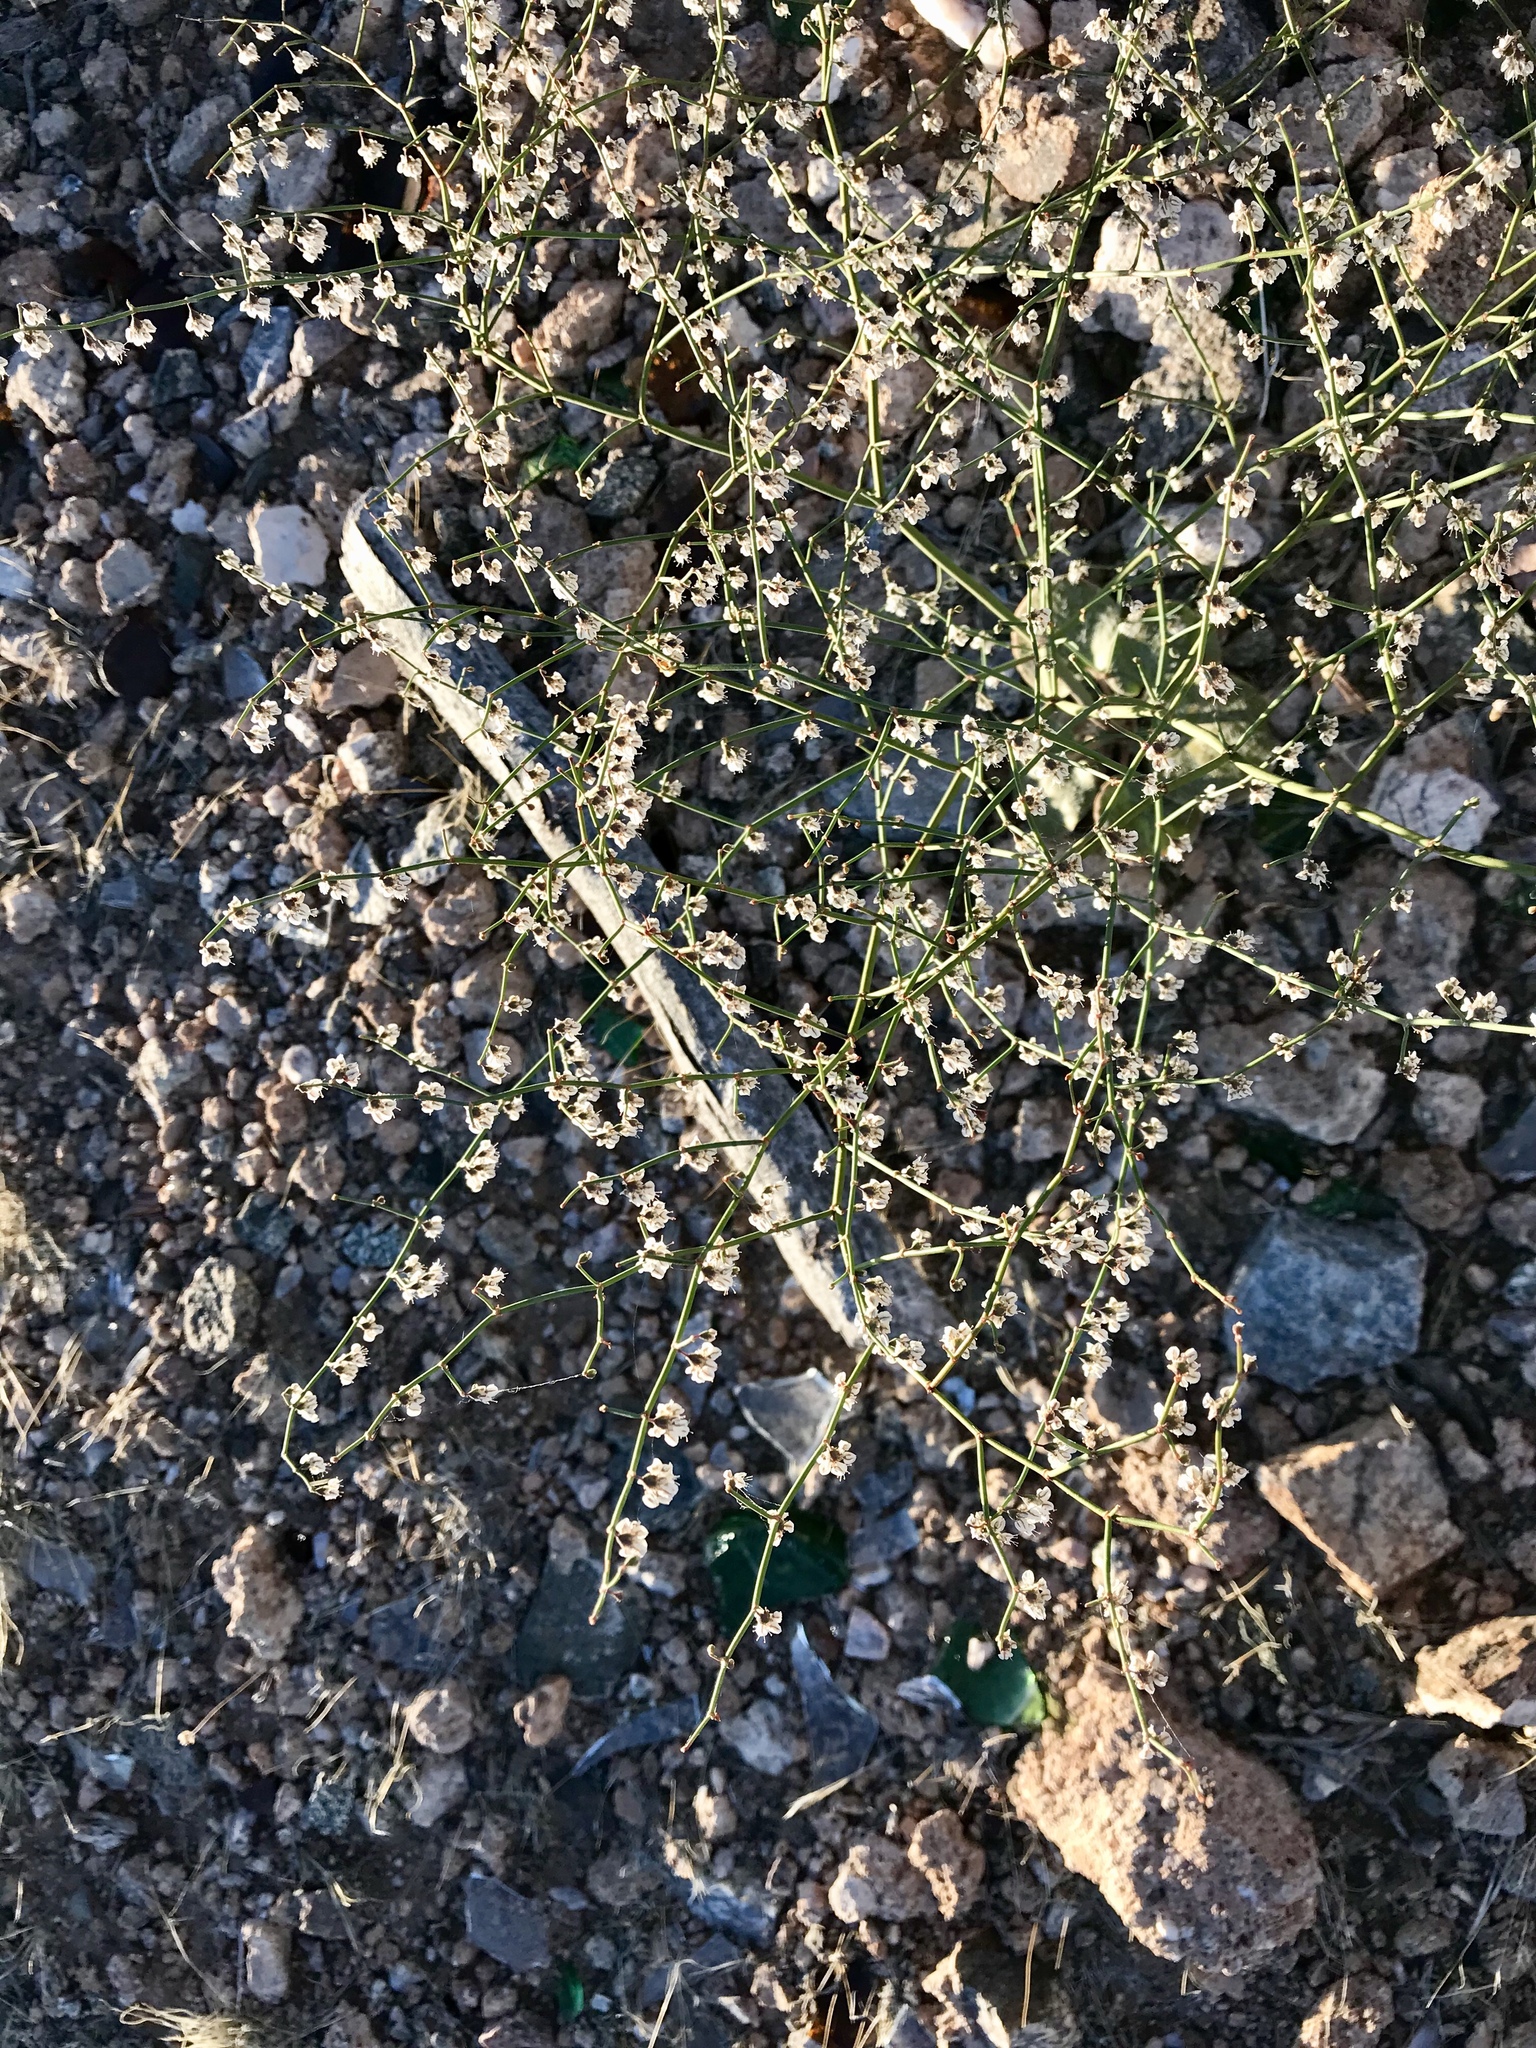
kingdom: Plantae
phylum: Tracheophyta
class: Magnoliopsida
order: Caryophyllales
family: Polygonaceae
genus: Eriogonum
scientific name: Eriogonum deflexum
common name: Skeleton-weed
